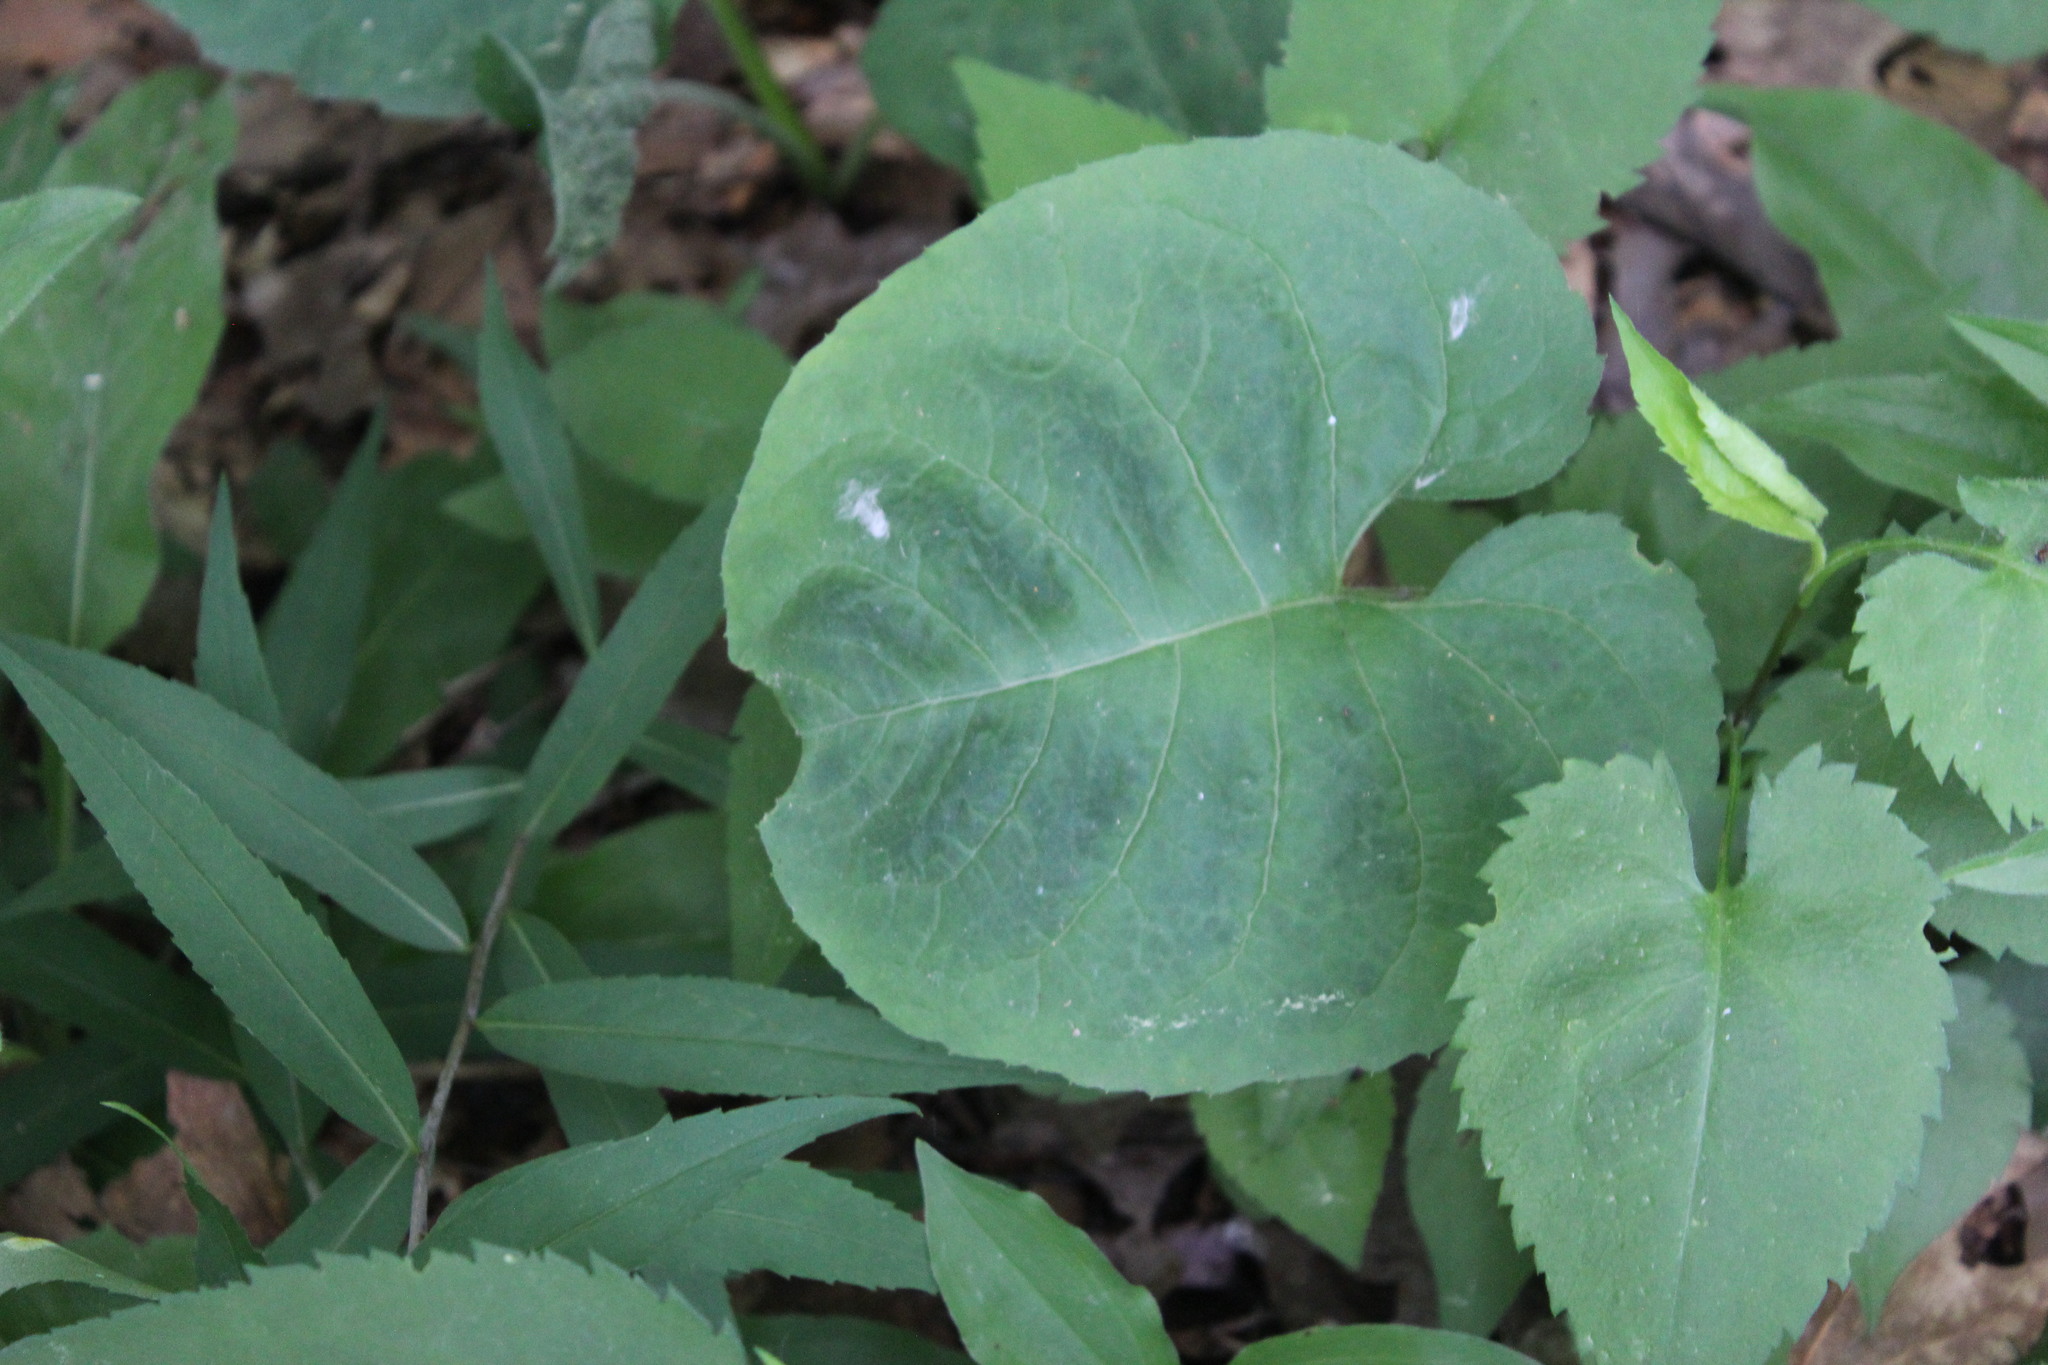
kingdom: Plantae
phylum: Tracheophyta
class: Magnoliopsida
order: Asterales
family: Asteraceae
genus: Symphyotrichum
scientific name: Symphyotrichum cordifolium
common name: Beeweed
